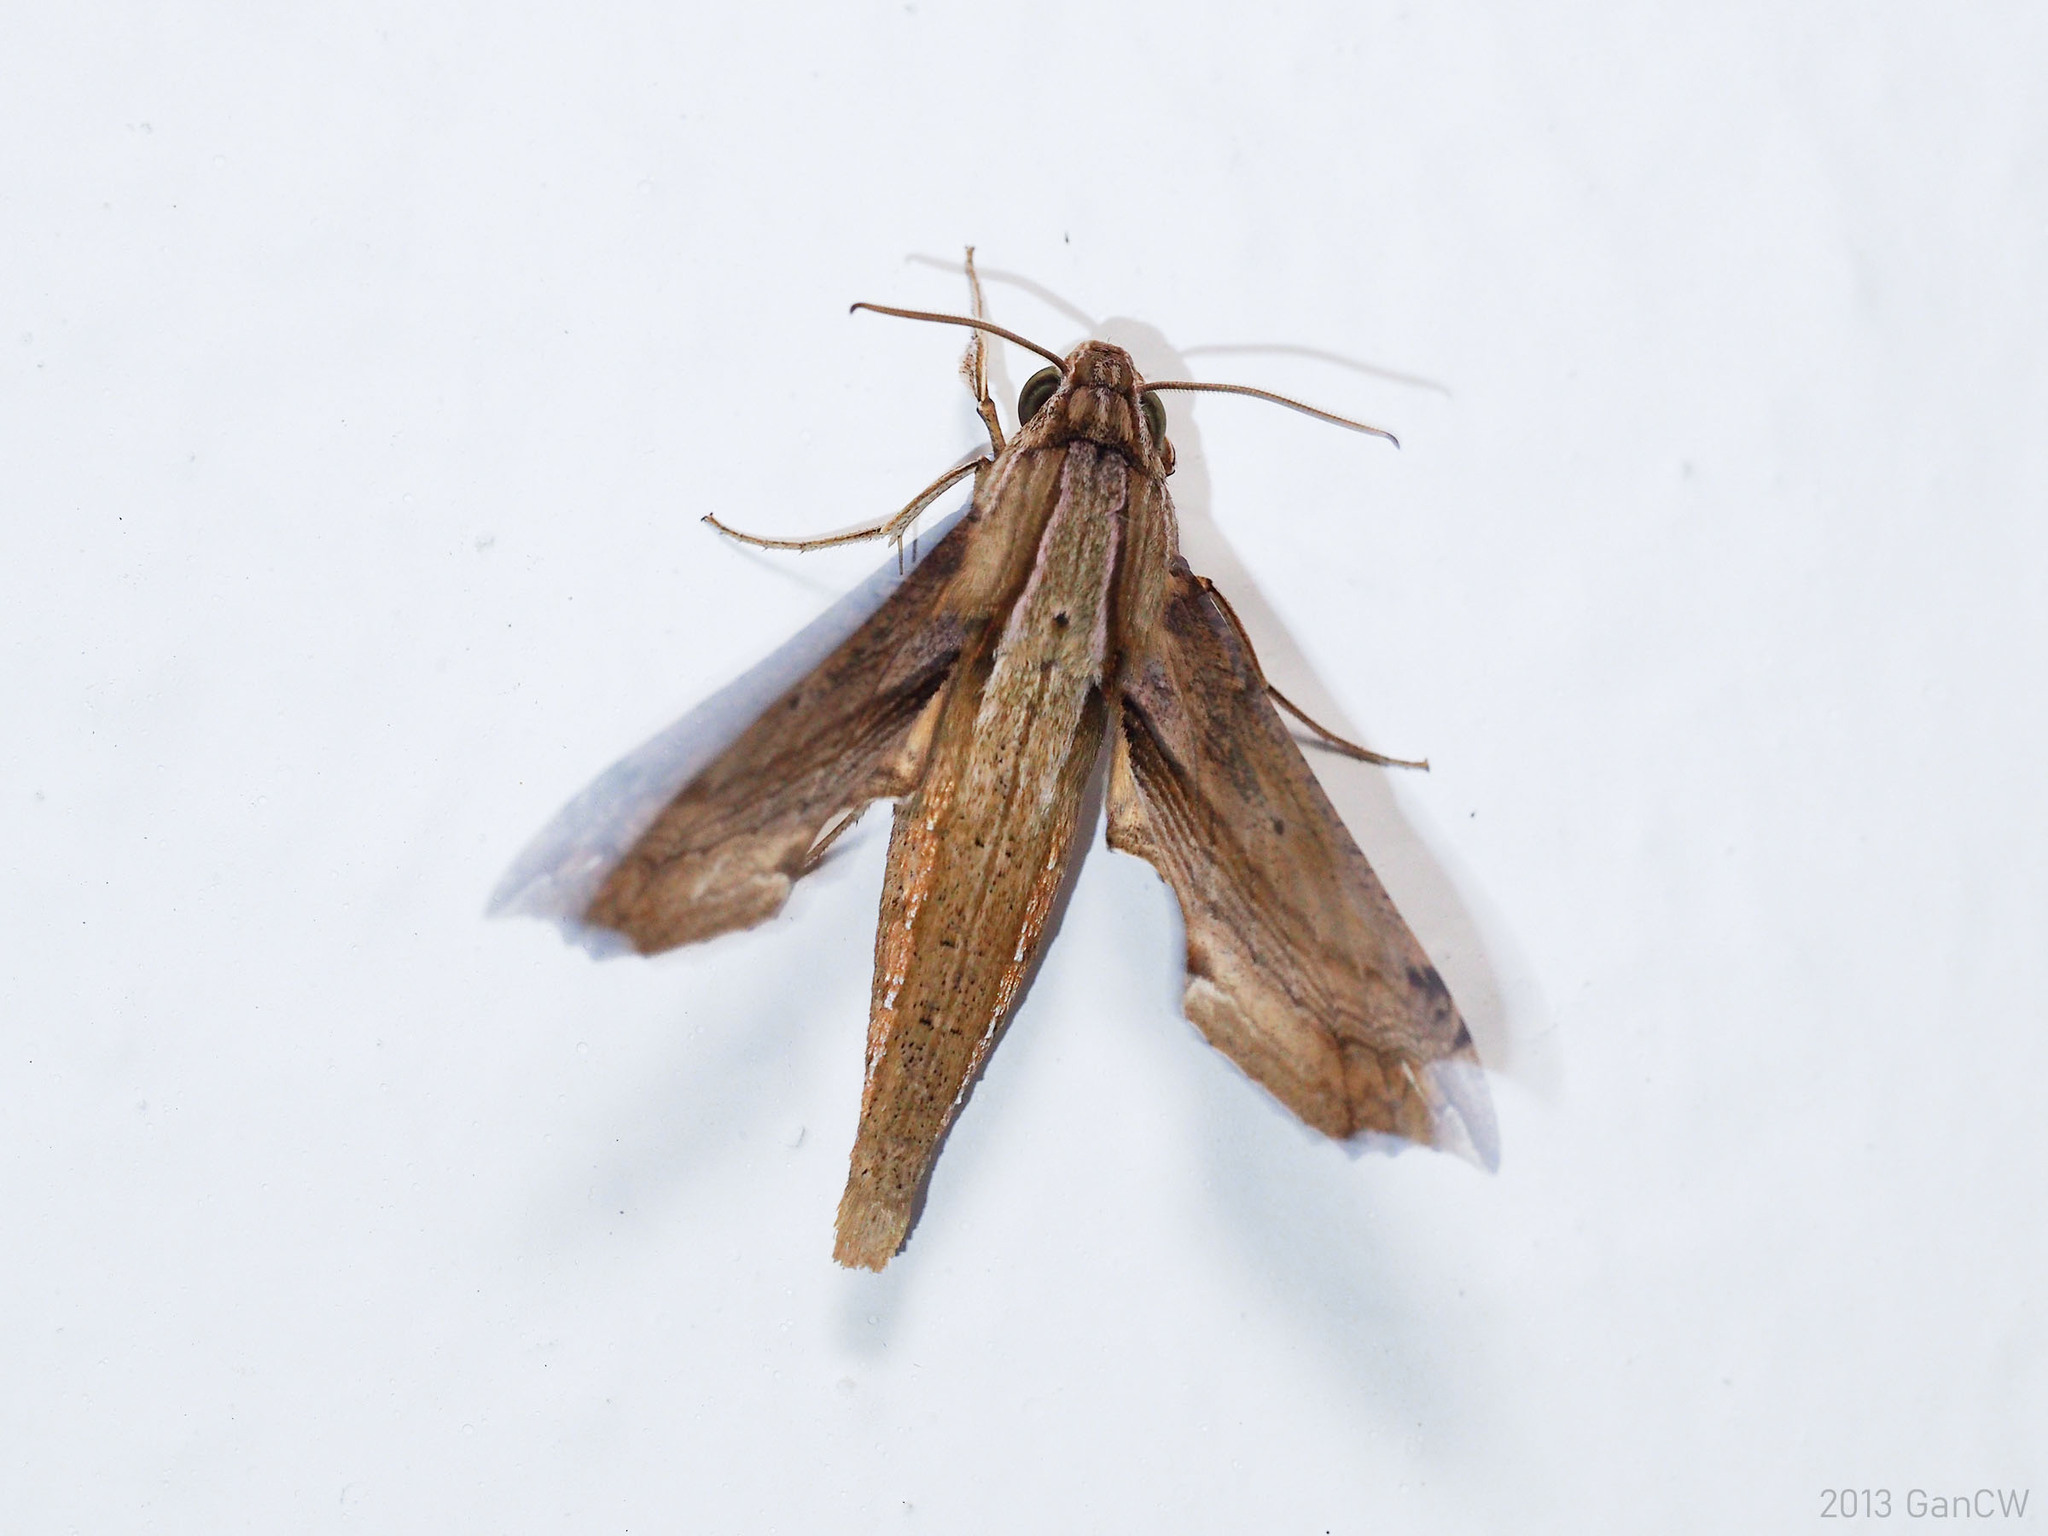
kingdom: Animalia
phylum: Arthropoda
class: Insecta
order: Lepidoptera
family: Sphingidae
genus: Eupanacra
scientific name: Eupanacra regularis
